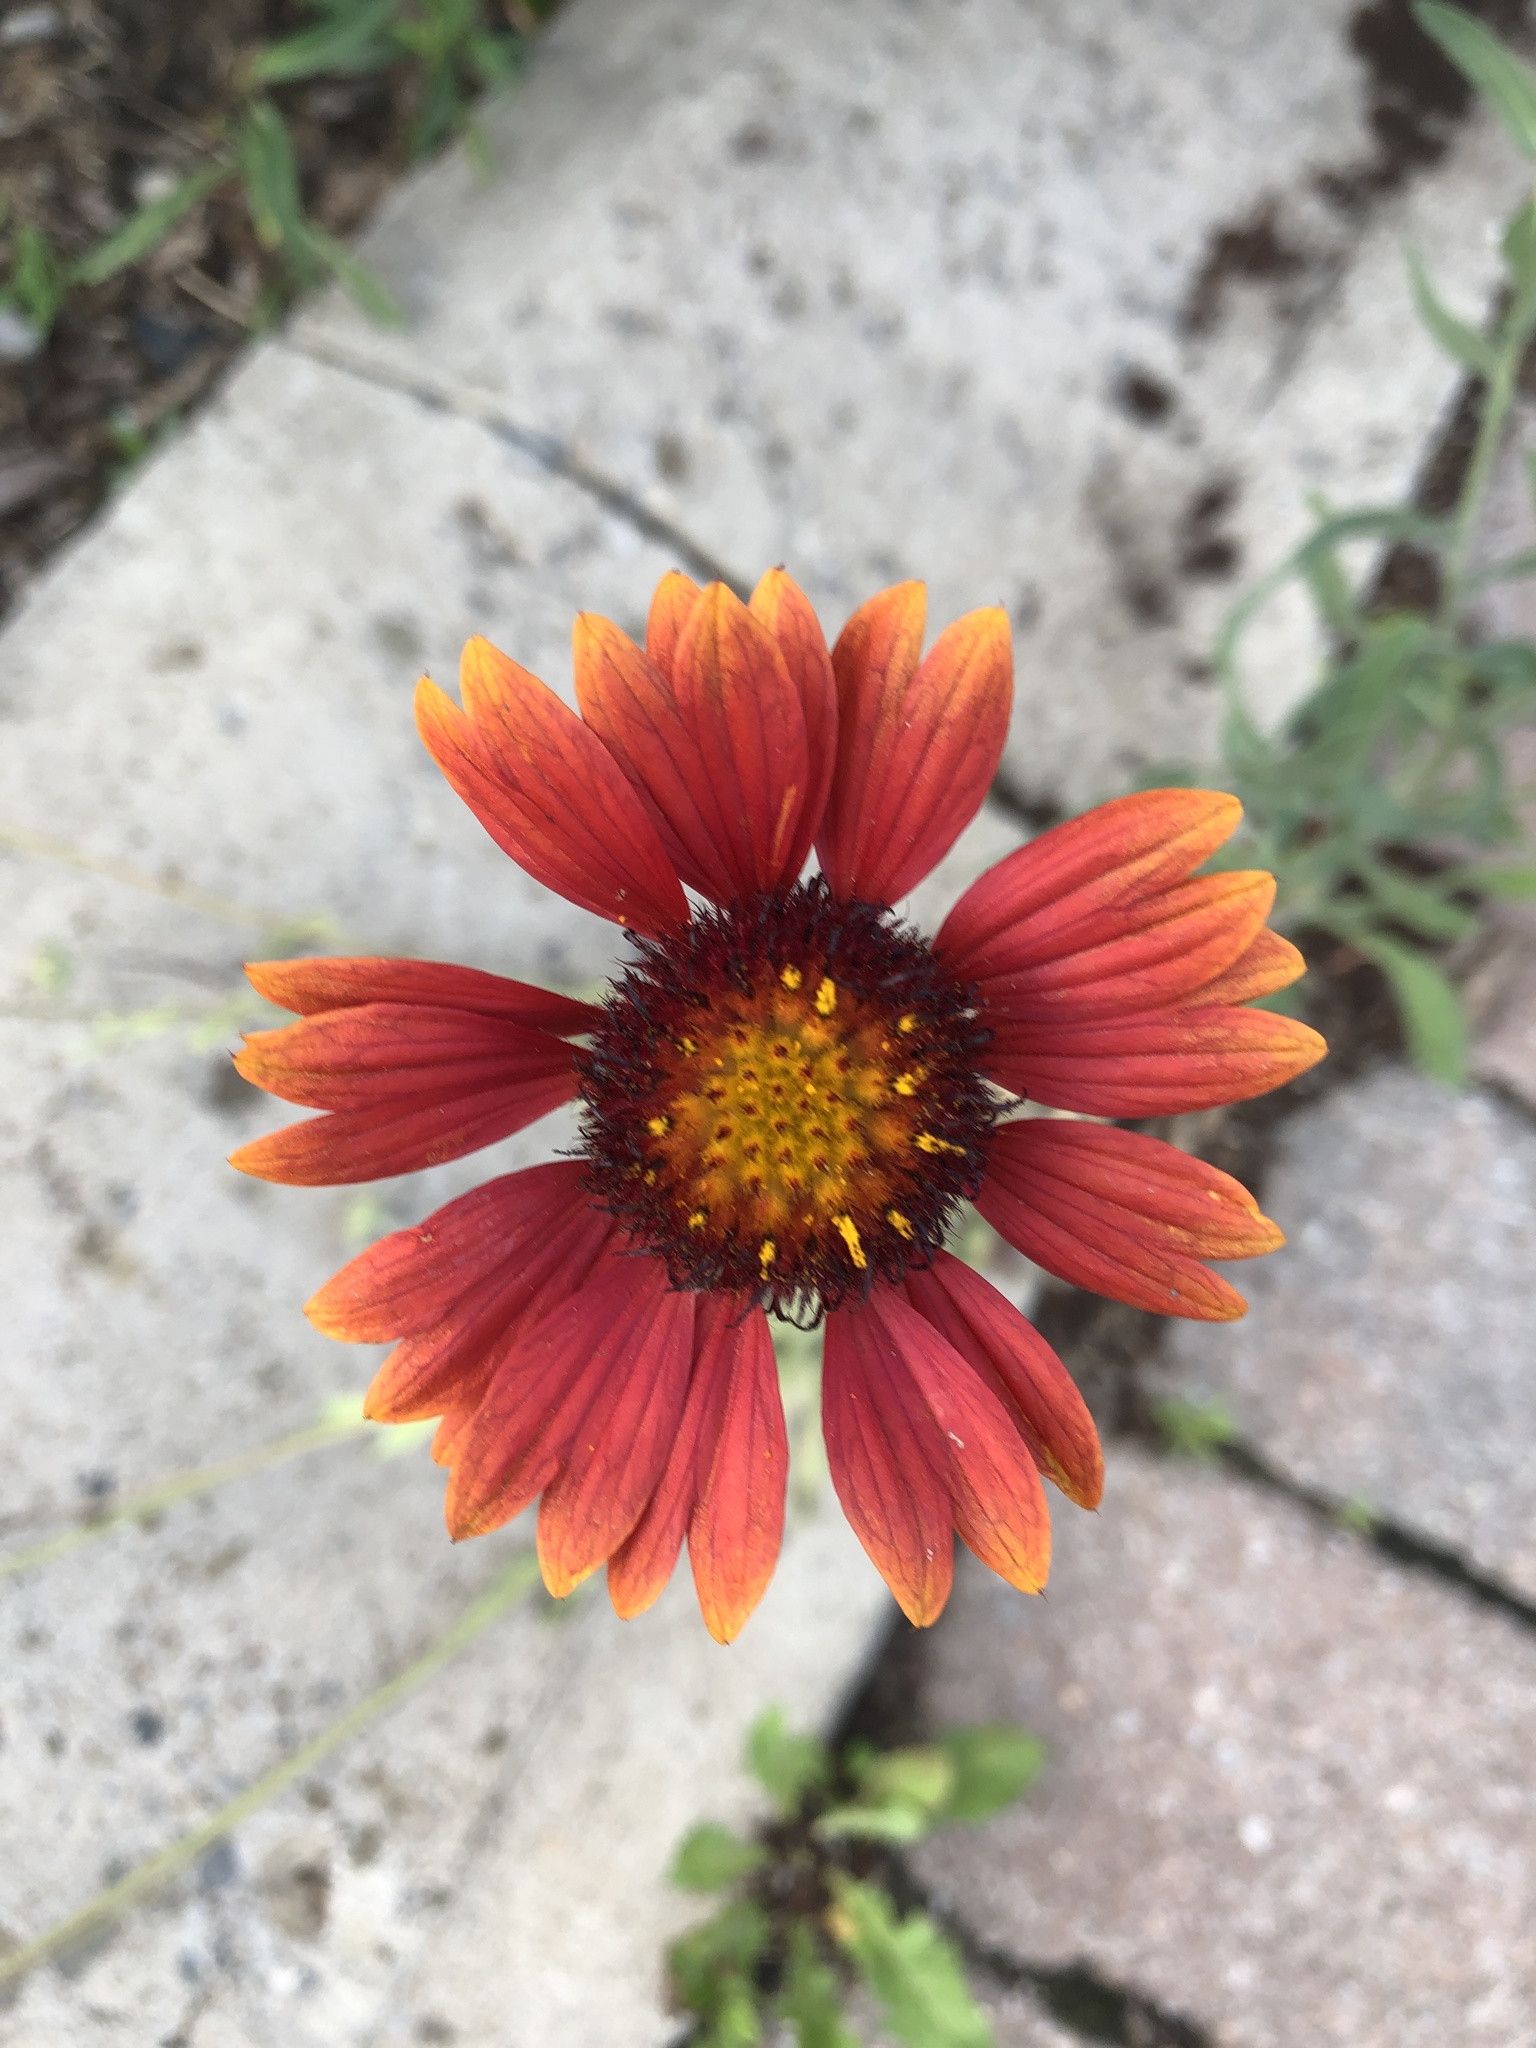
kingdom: Plantae
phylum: Tracheophyta
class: Magnoliopsida
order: Asterales
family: Asteraceae
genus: Gaillardia
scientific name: Gaillardia pulchella
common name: Firewheel
